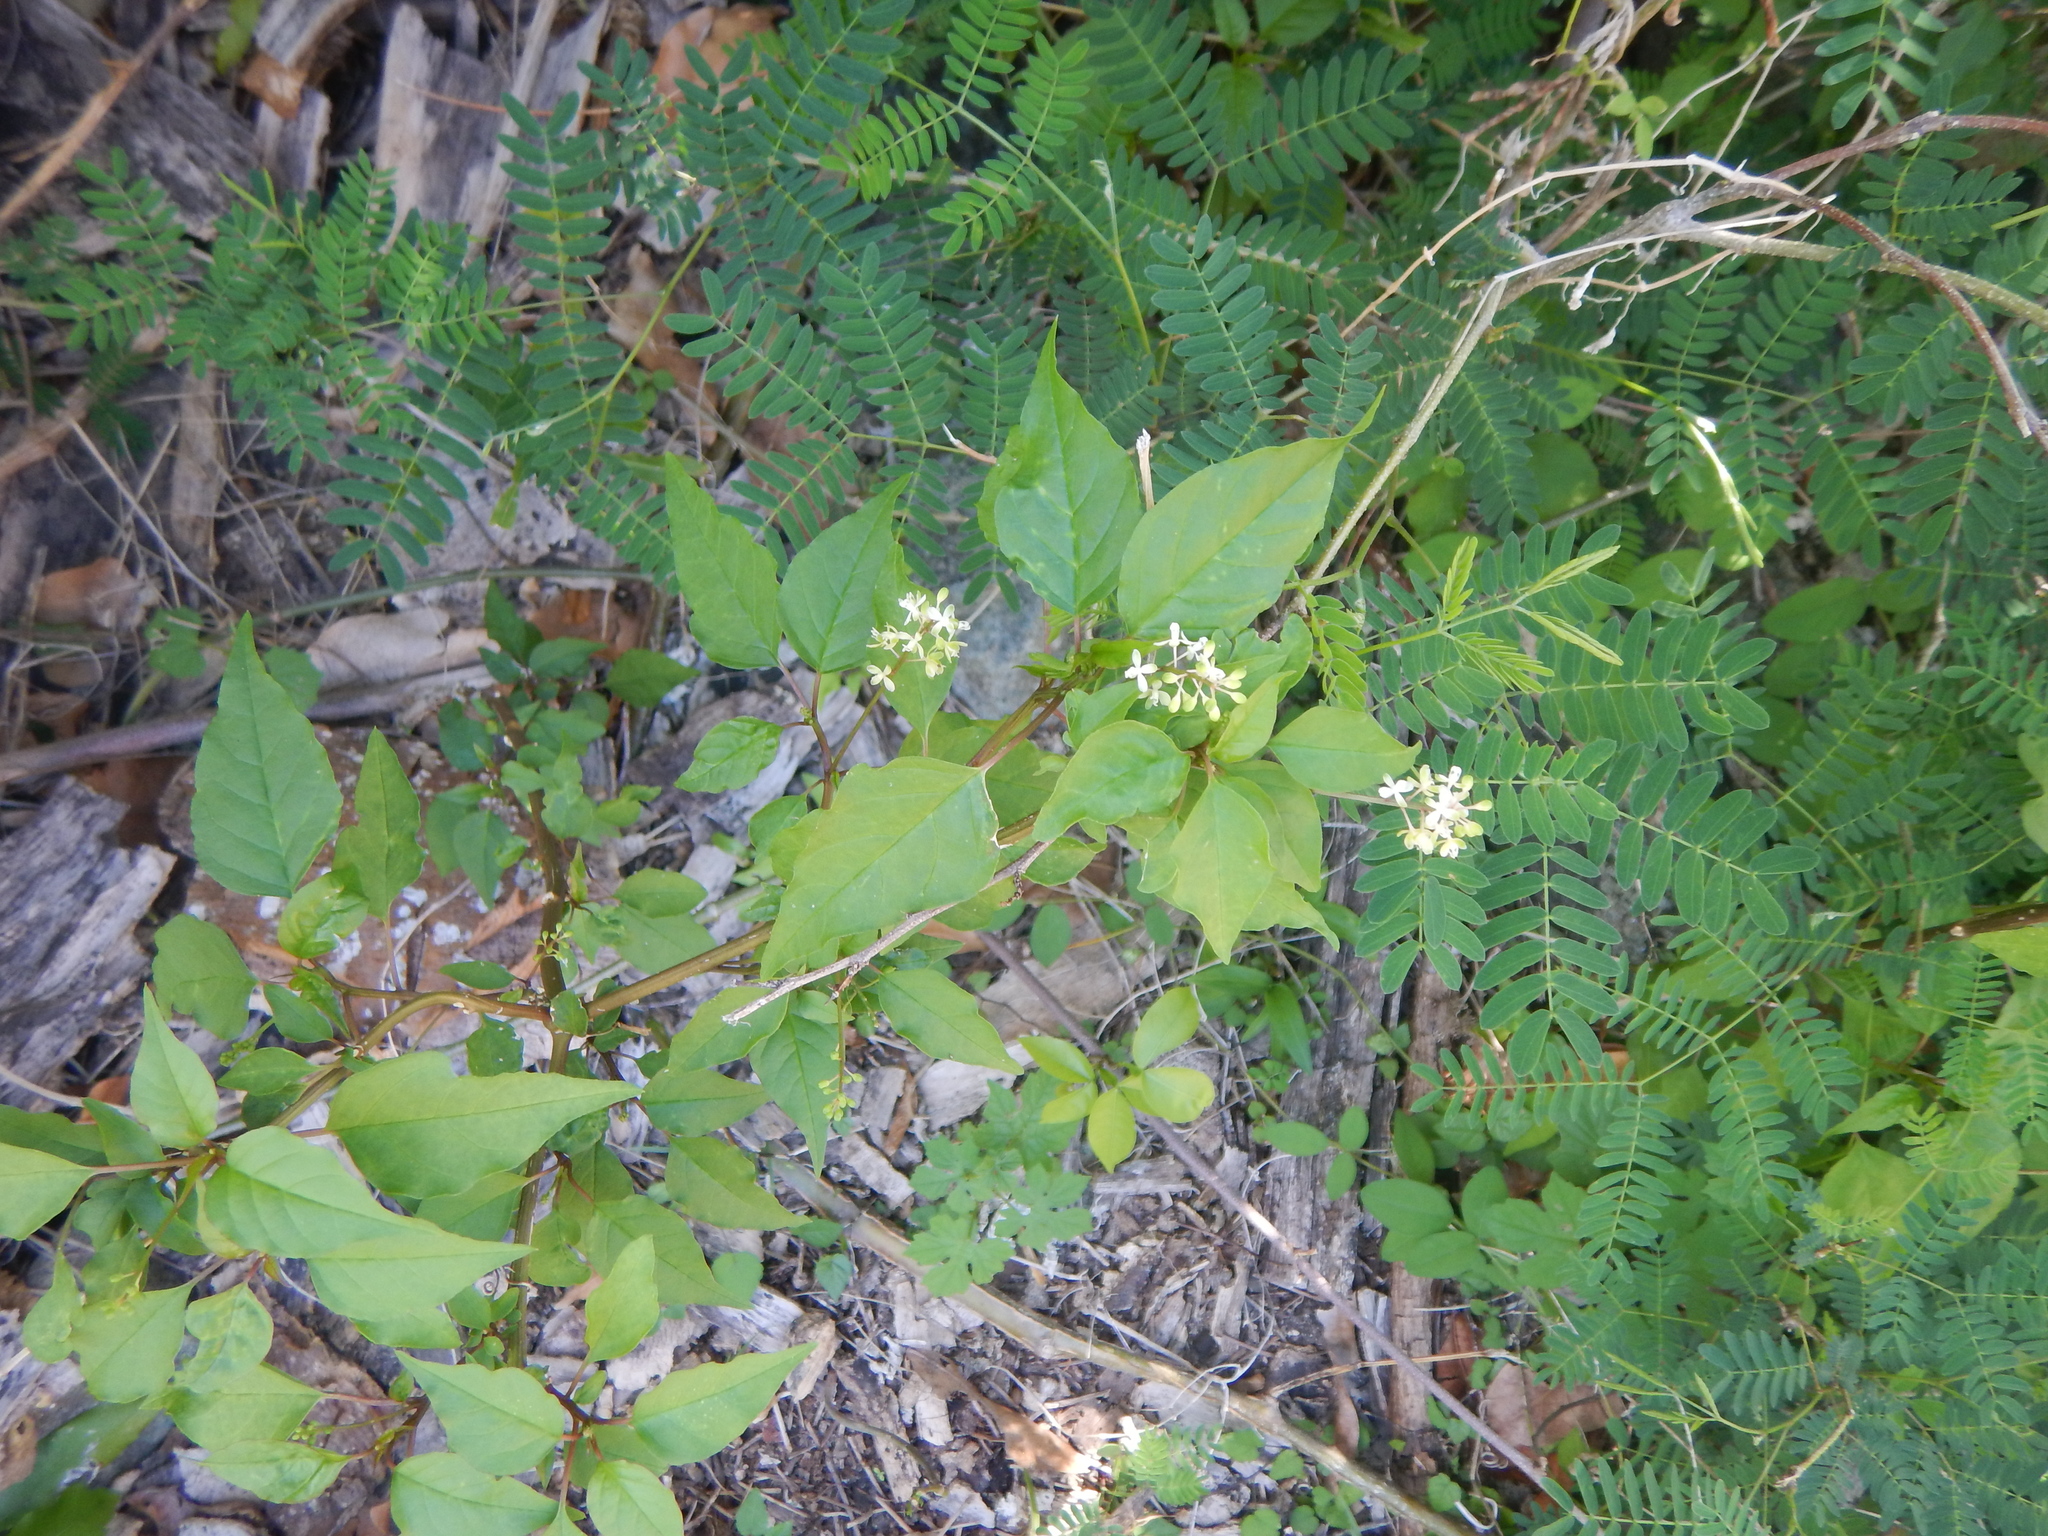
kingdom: Plantae
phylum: Tracheophyta
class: Magnoliopsida
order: Caryophyllales
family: Phytolaccaceae
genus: Rivina
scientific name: Rivina humilis
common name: Rougeplant
